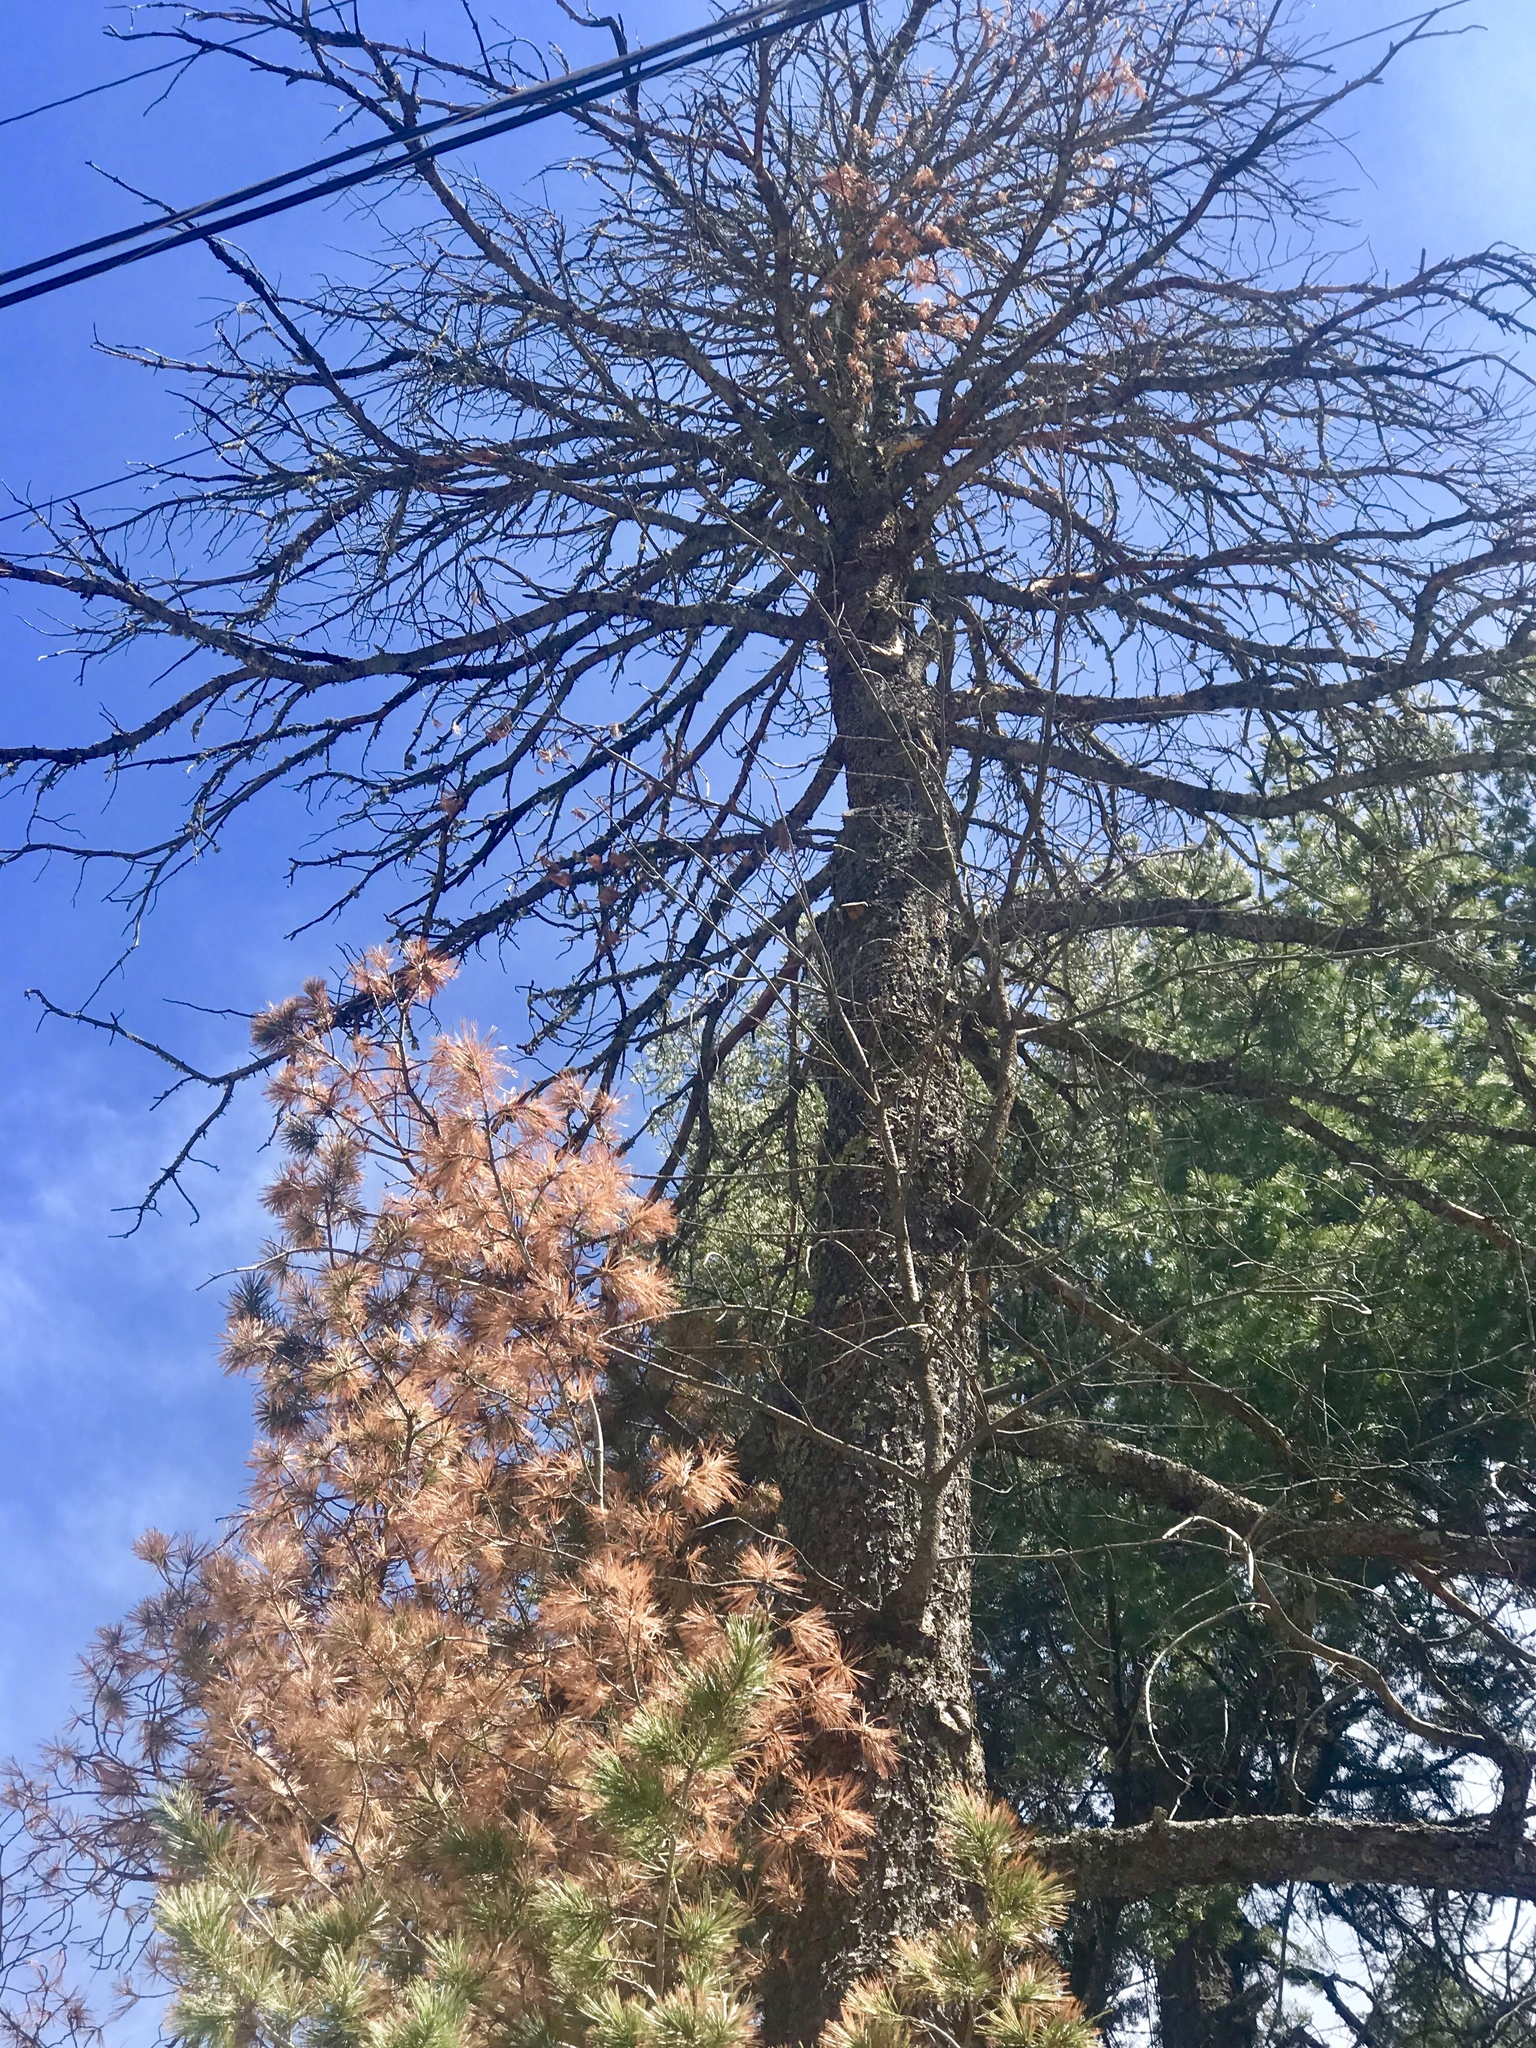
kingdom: Plantae
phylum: Tracheophyta
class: Pinopsida
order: Pinales
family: Pinaceae
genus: Pinus
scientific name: Pinus strobiformis
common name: Southwestern white pine
